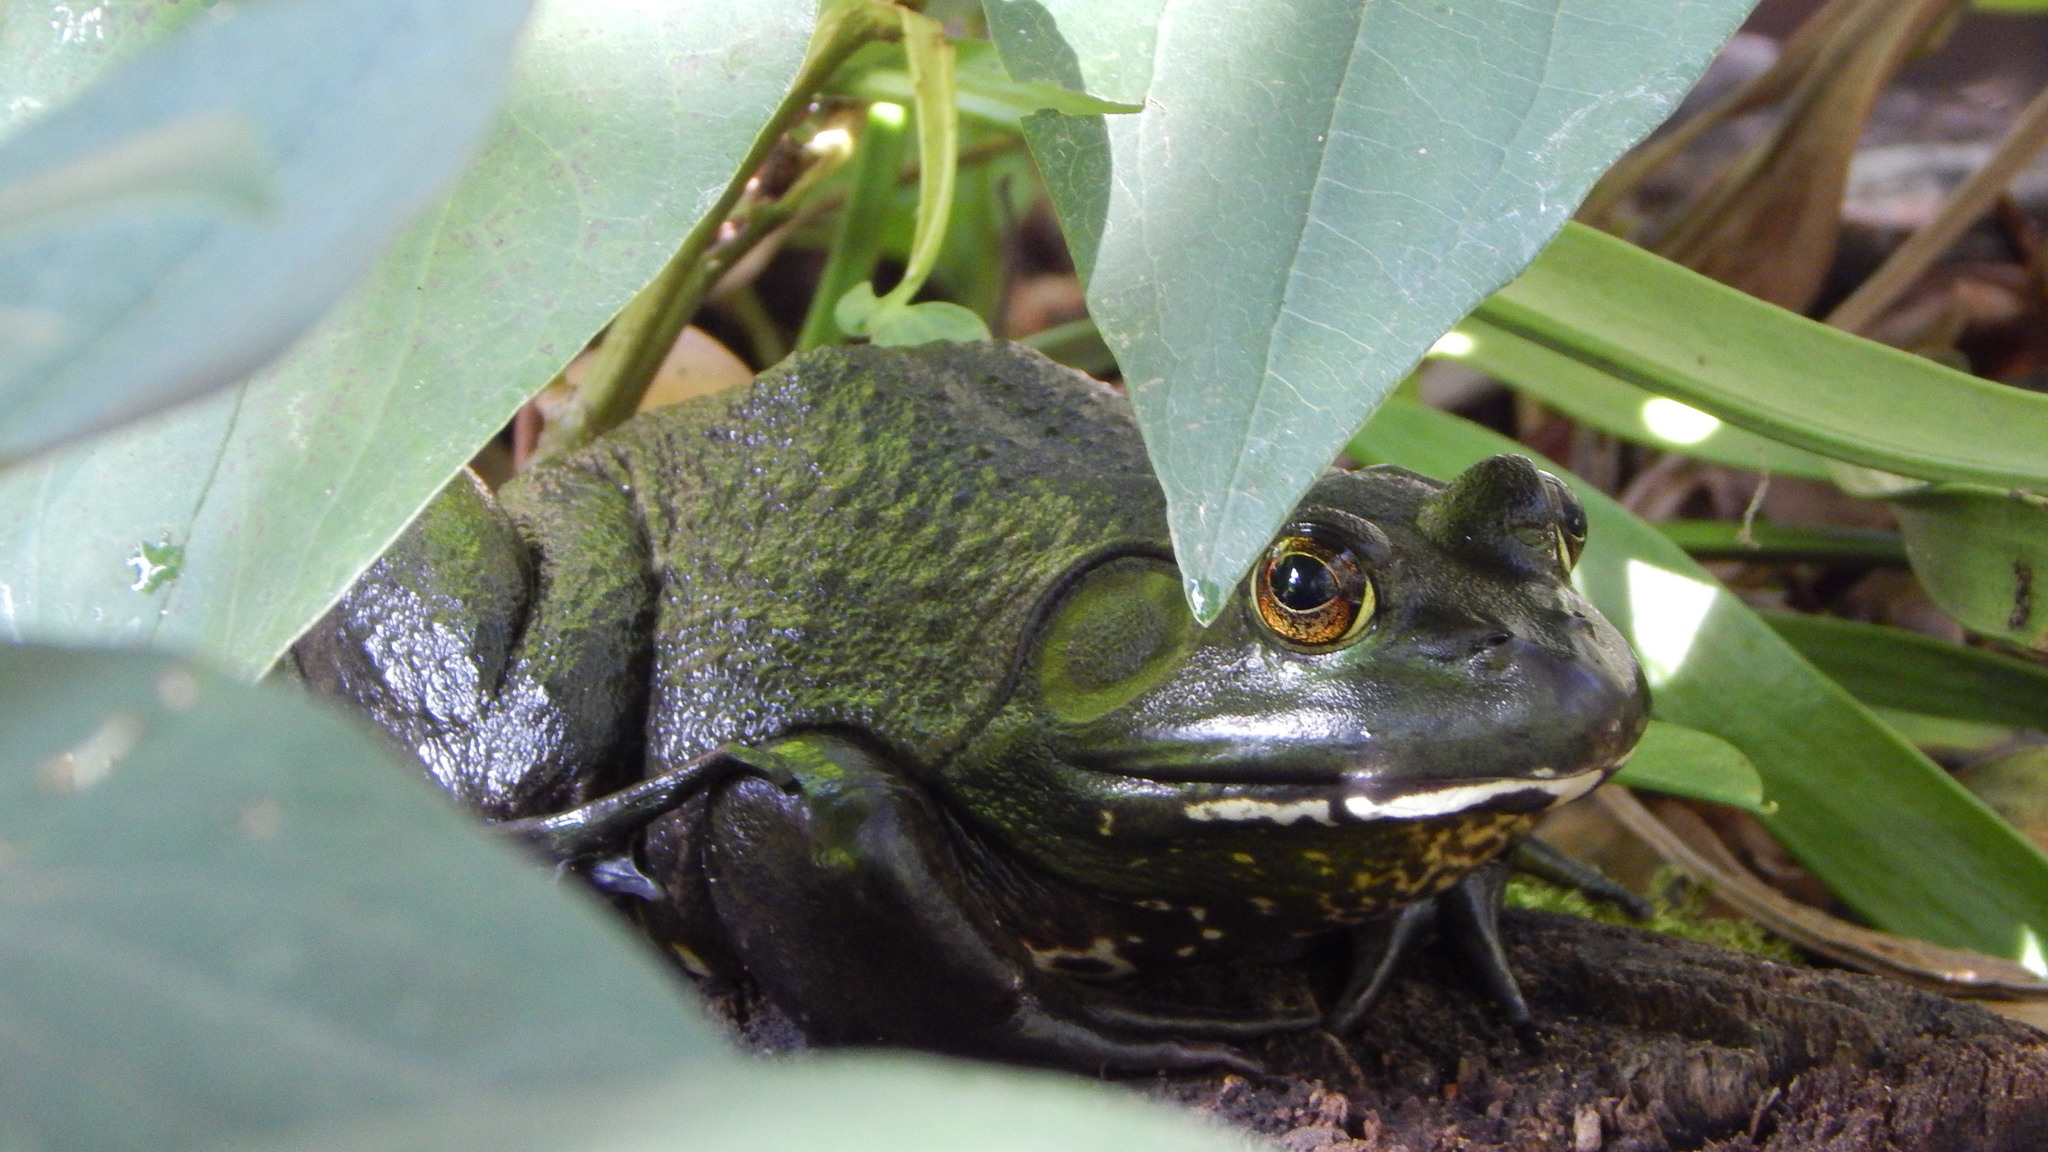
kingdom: Animalia
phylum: Chordata
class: Amphibia
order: Anura
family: Ranidae
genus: Lithobates
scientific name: Lithobates catesbeianus
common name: American bullfrog
